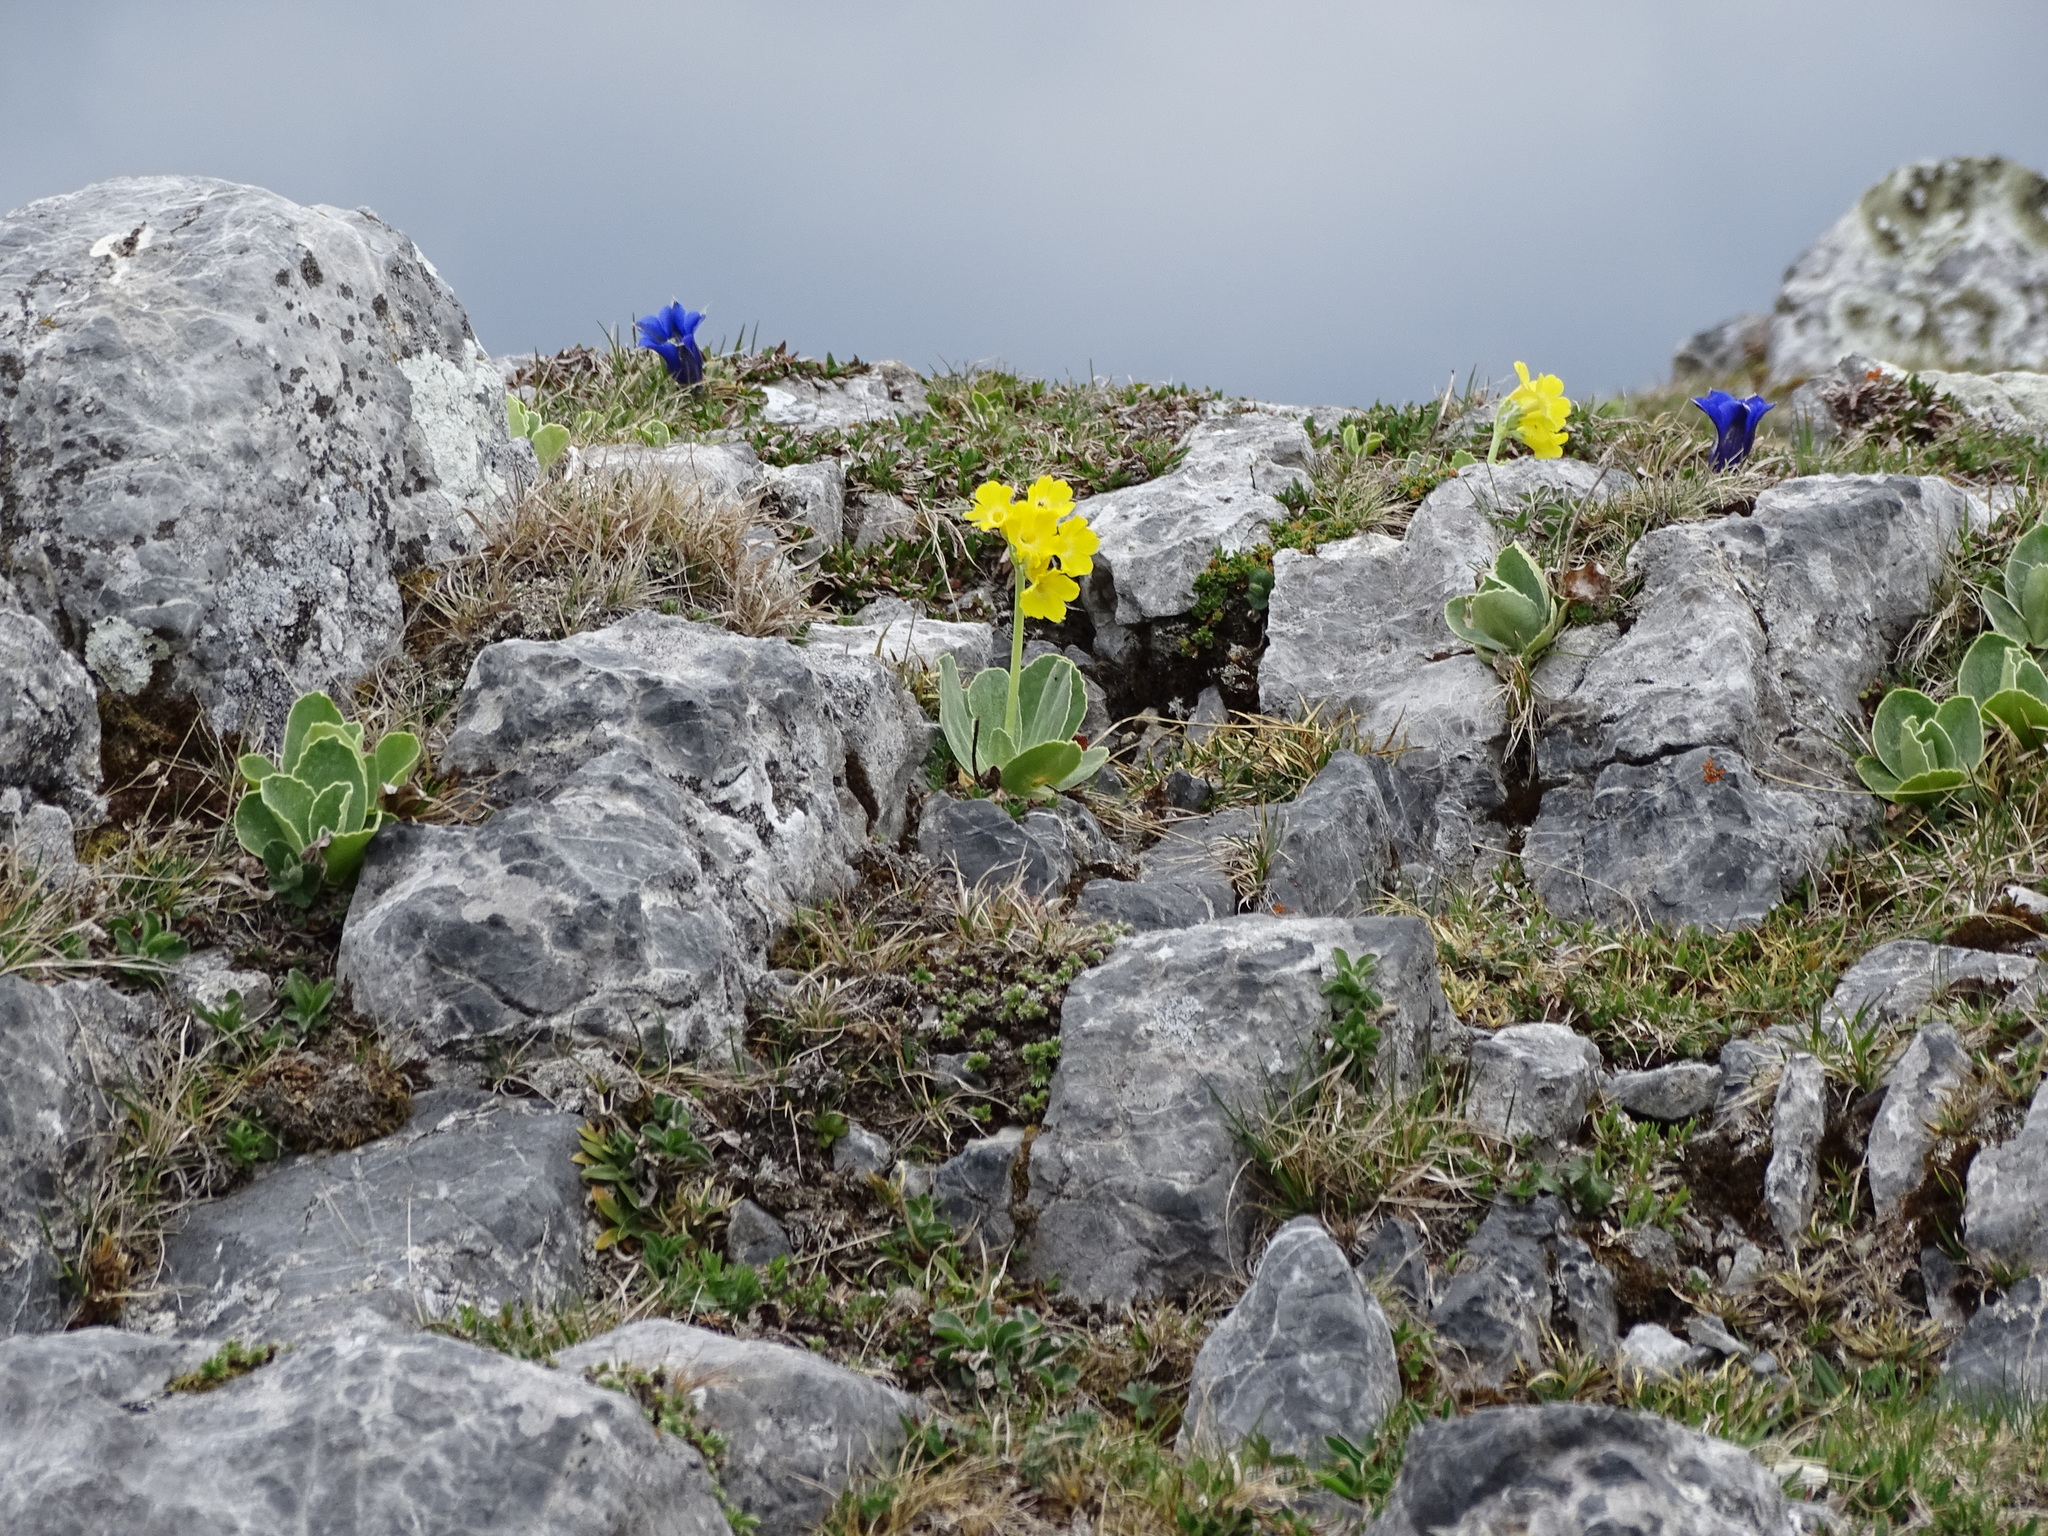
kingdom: Plantae
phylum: Tracheophyta
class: Magnoliopsida
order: Ericales
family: Primulaceae
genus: Primula
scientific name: Primula auricula
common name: Auricula
